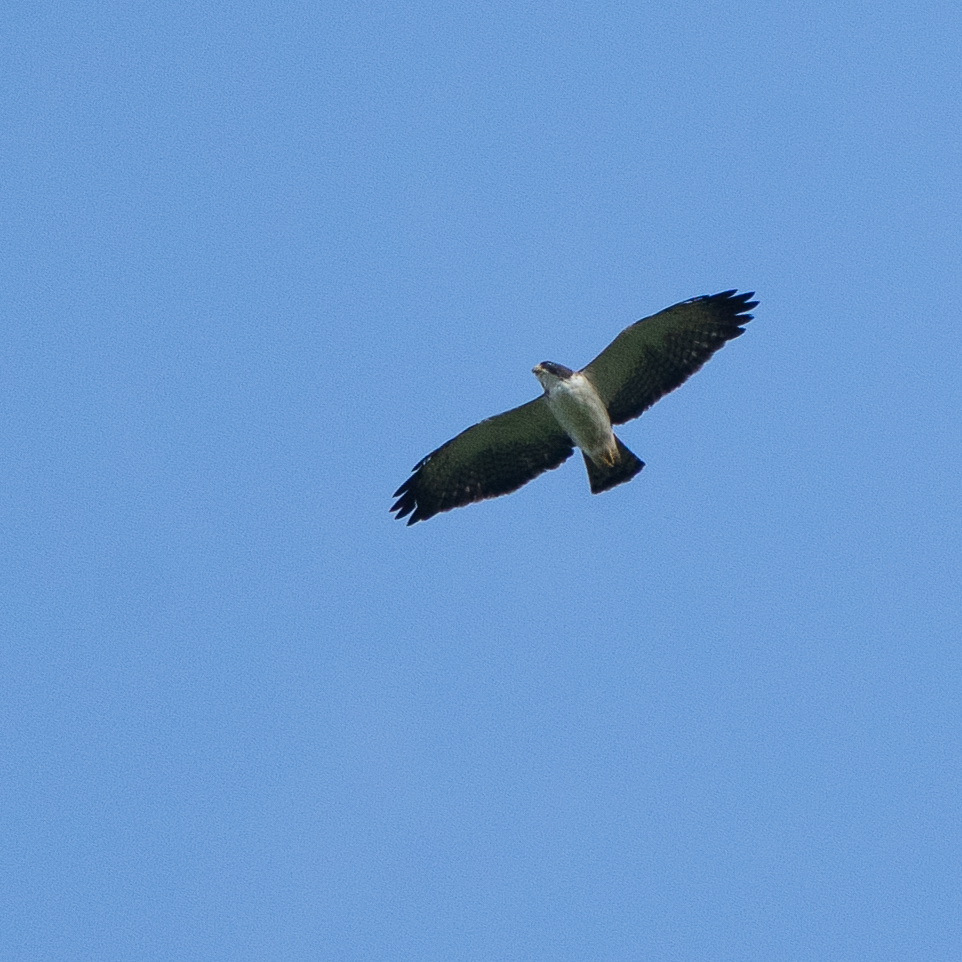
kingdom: Animalia
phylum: Chordata
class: Aves
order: Accipitriformes
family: Accipitridae
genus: Buteo
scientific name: Buteo brachyurus
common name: Short-tailed hawk
